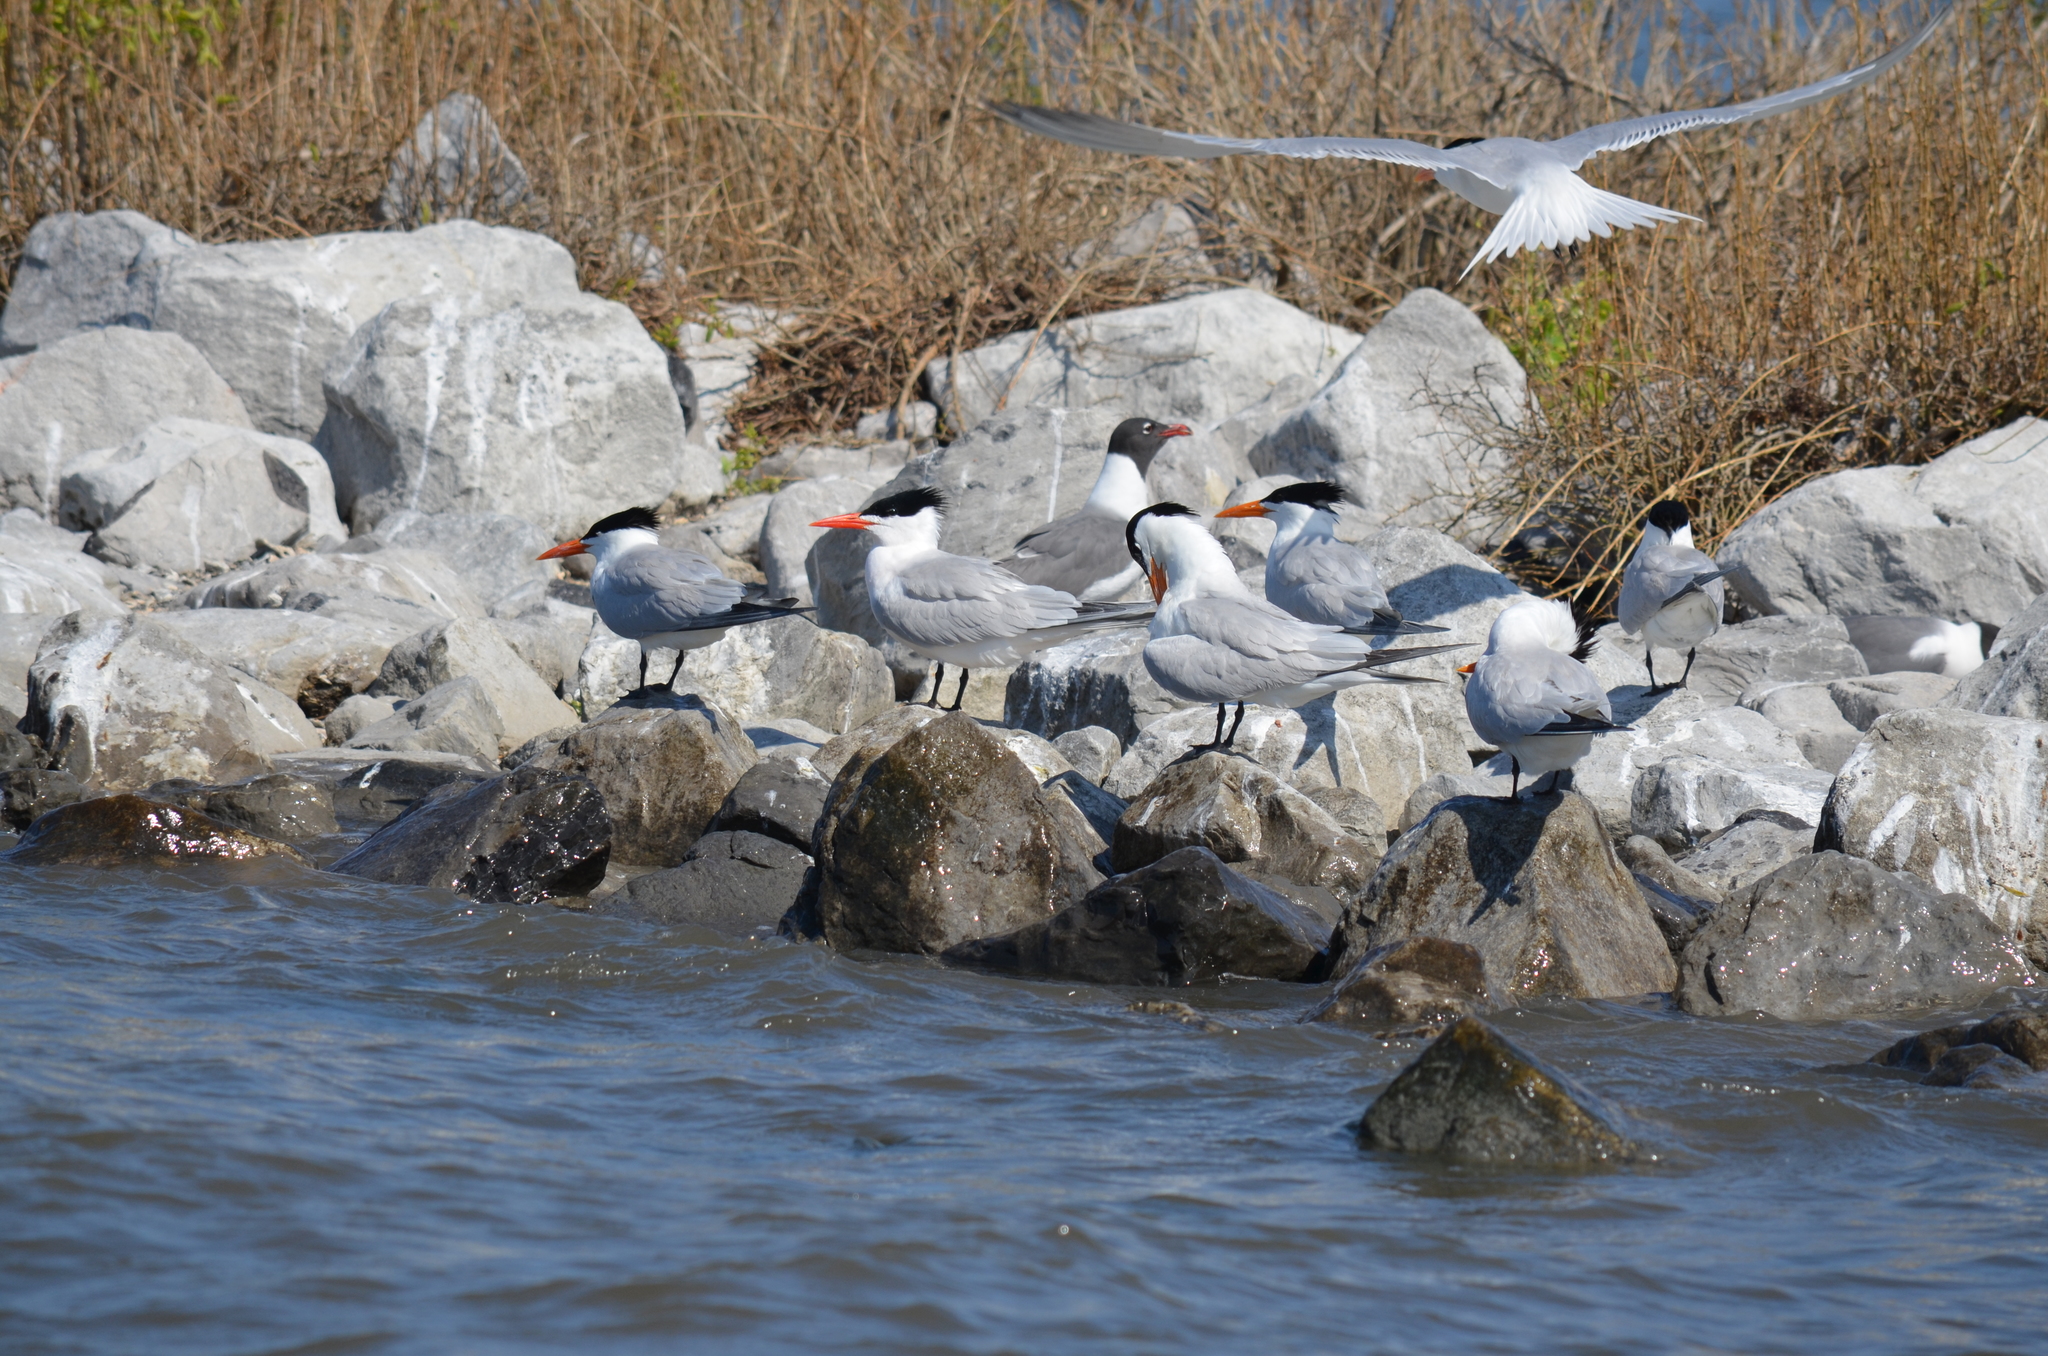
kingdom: Animalia
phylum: Chordata
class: Aves
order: Charadriiformes
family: Laridae
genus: Thalasseus
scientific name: Thalasseus maximus
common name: Royal tern
